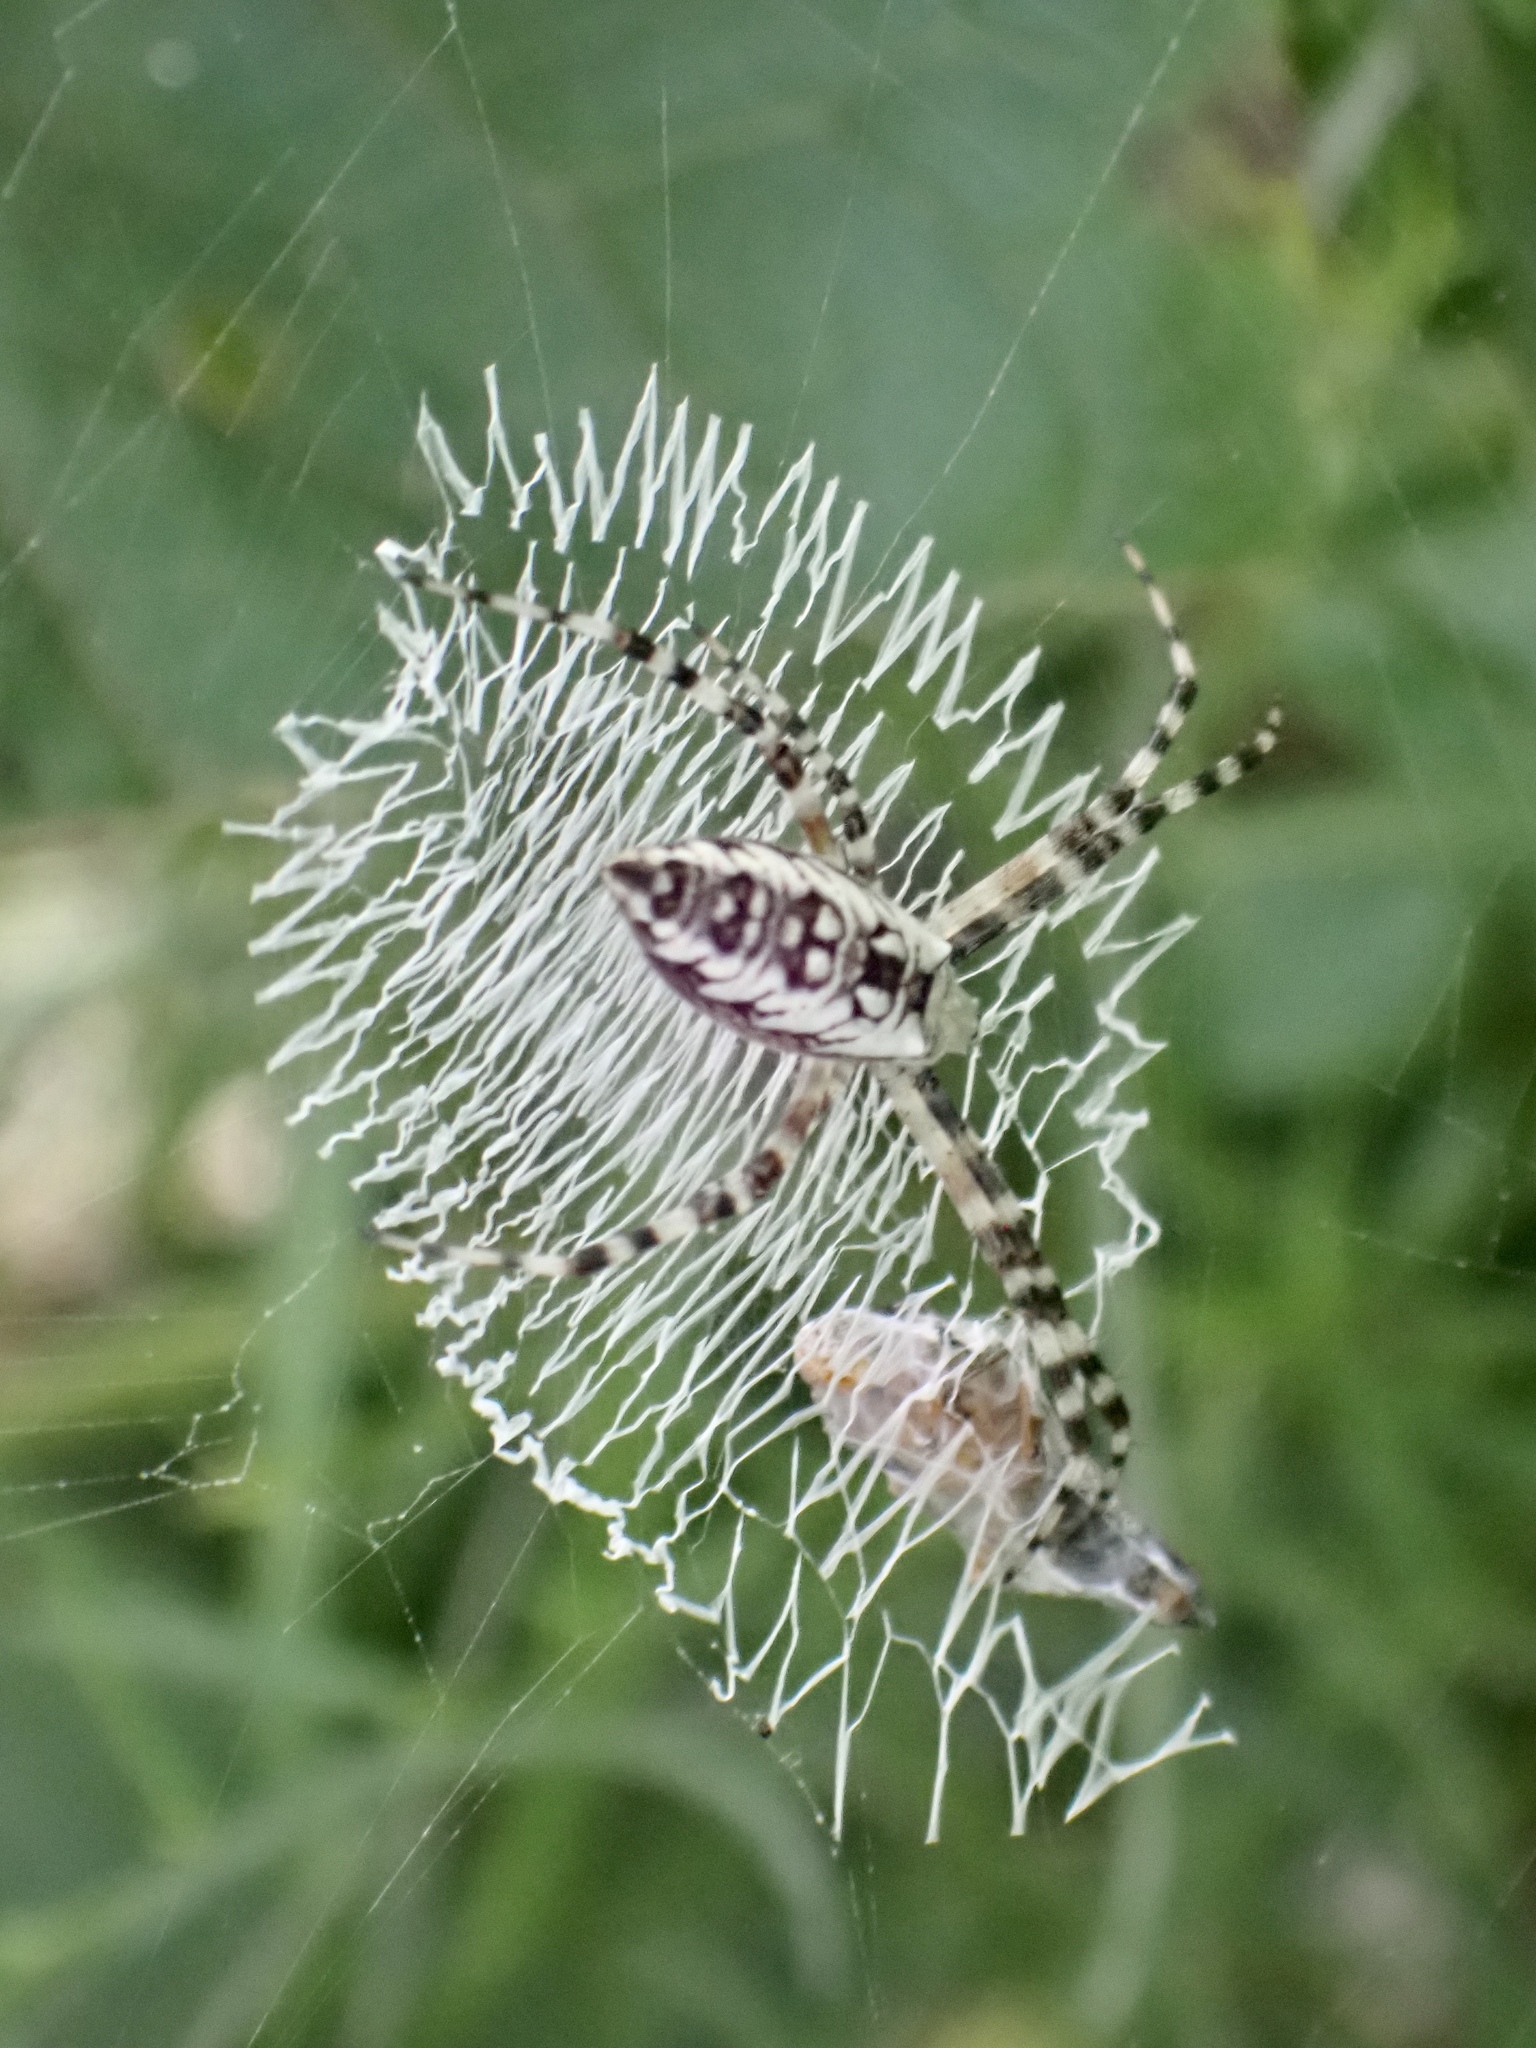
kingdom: Animalia
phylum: Arthropoda
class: Arachnida
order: Araneae
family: Araneidae
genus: Argiope
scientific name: Argiope aurantia
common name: Orb weavers
